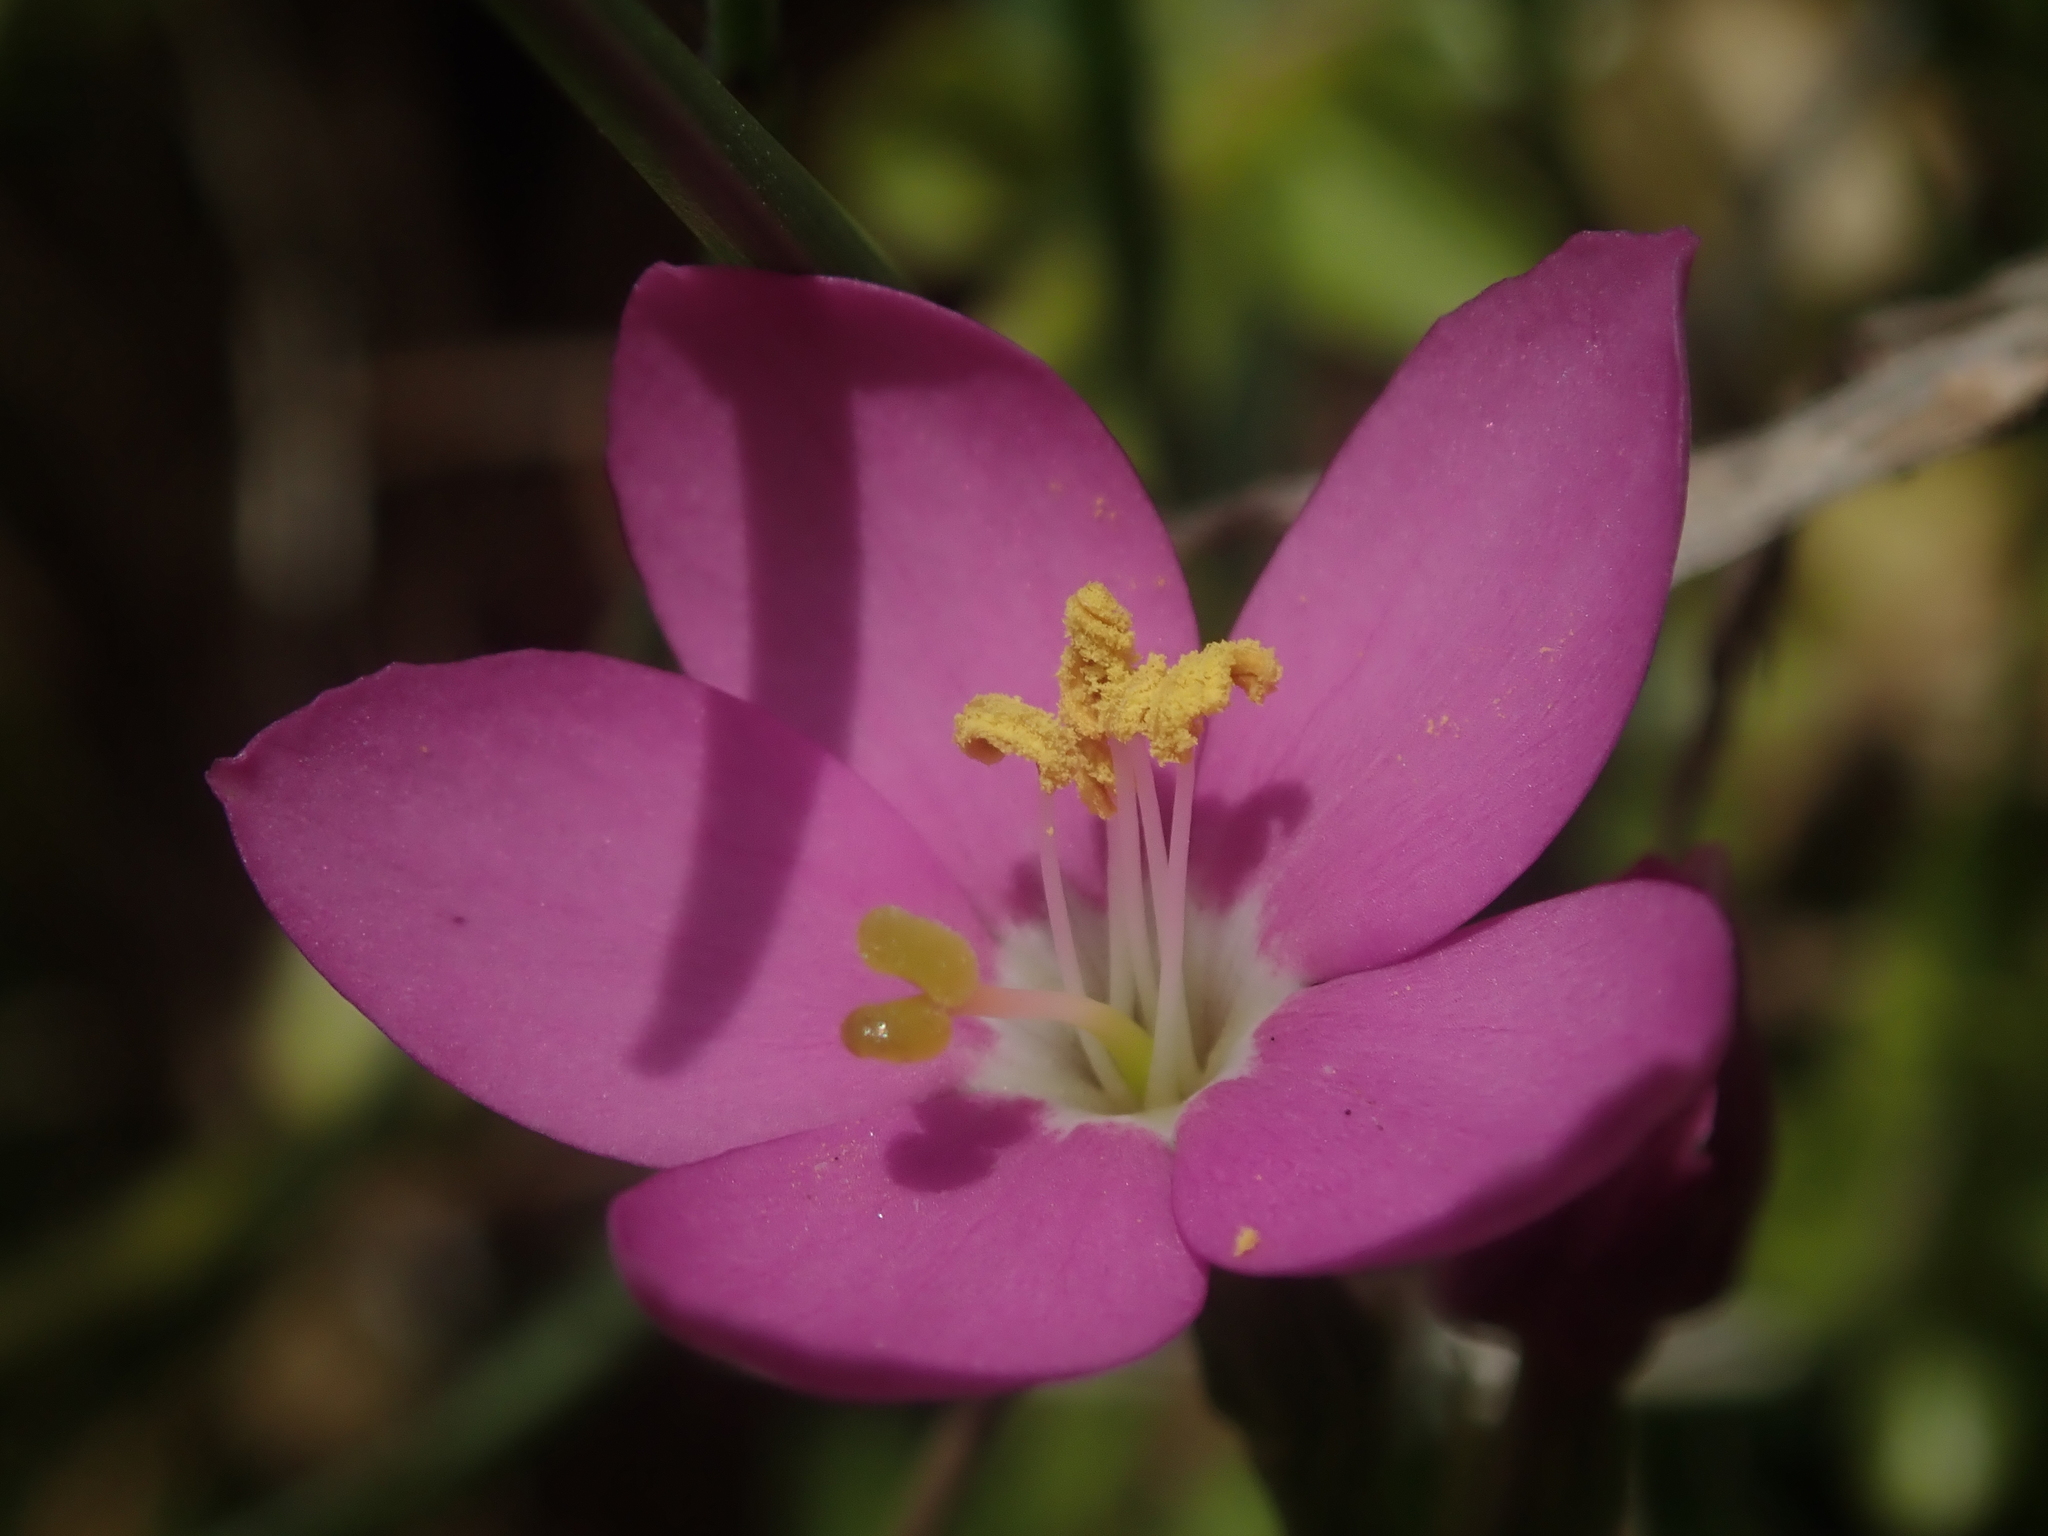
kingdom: Plantae
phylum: Tracheophyta
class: Magnoliopsida
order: Gentianales
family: Gentianaceae
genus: Centaurium
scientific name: Centaurium cachanlahuen
